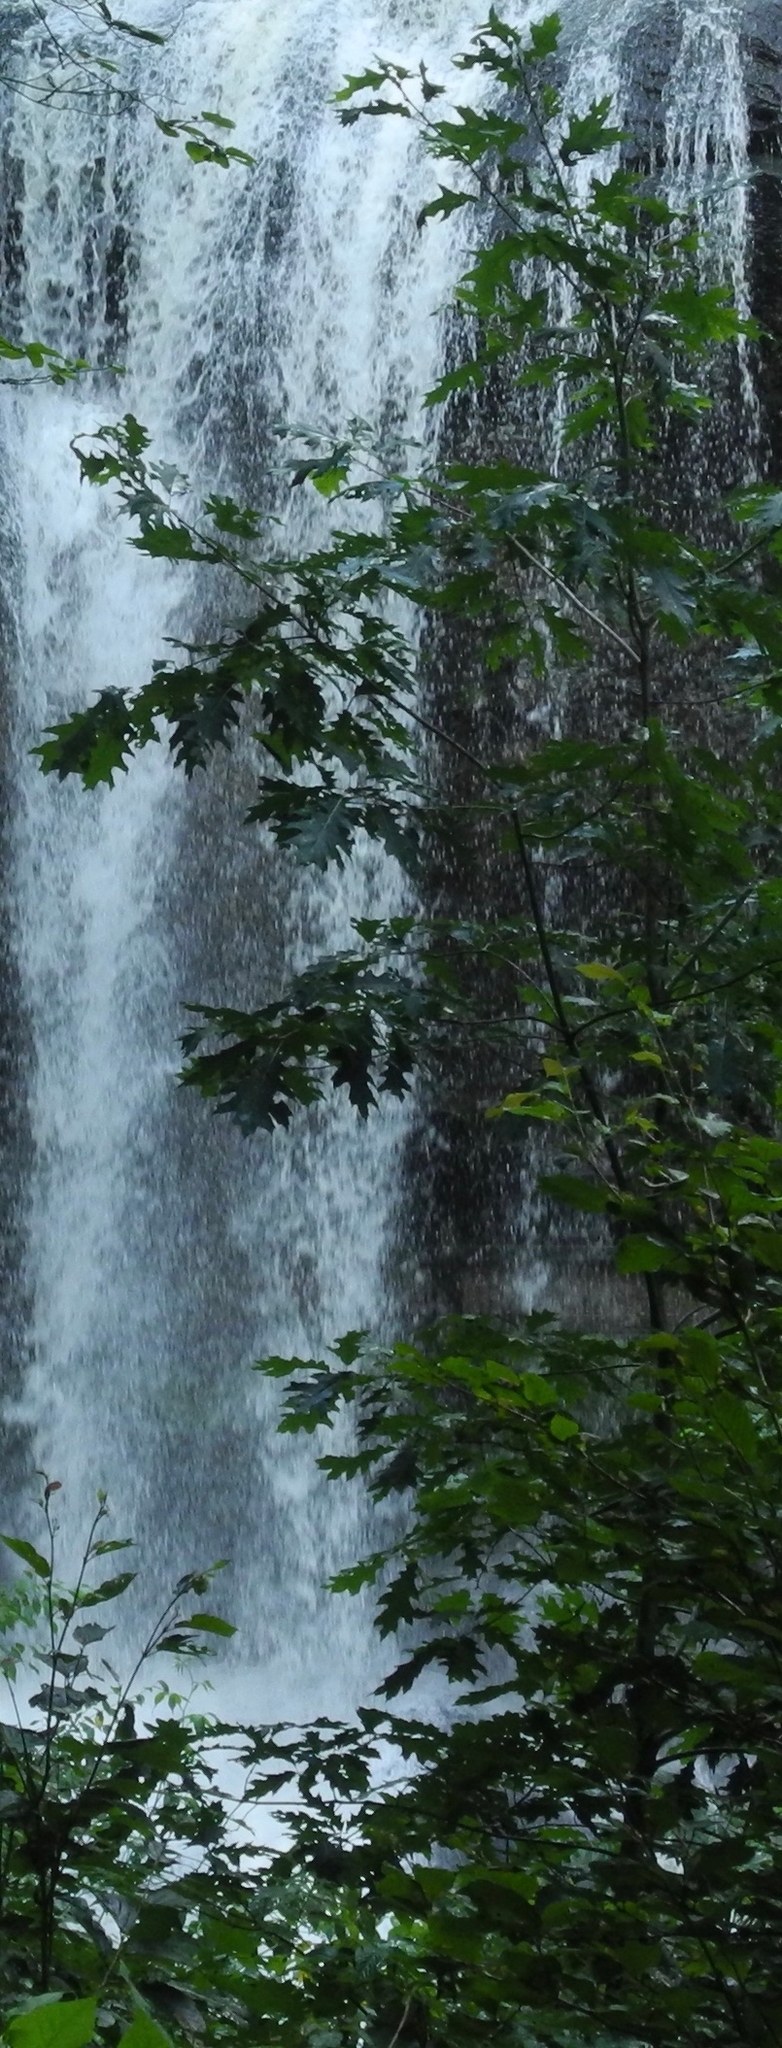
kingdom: Plantae
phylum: Tracheophyta
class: Magnoliopsida
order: Fagales
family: Fagaceae
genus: Quercus
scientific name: Quercus rubra
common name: Red oak
